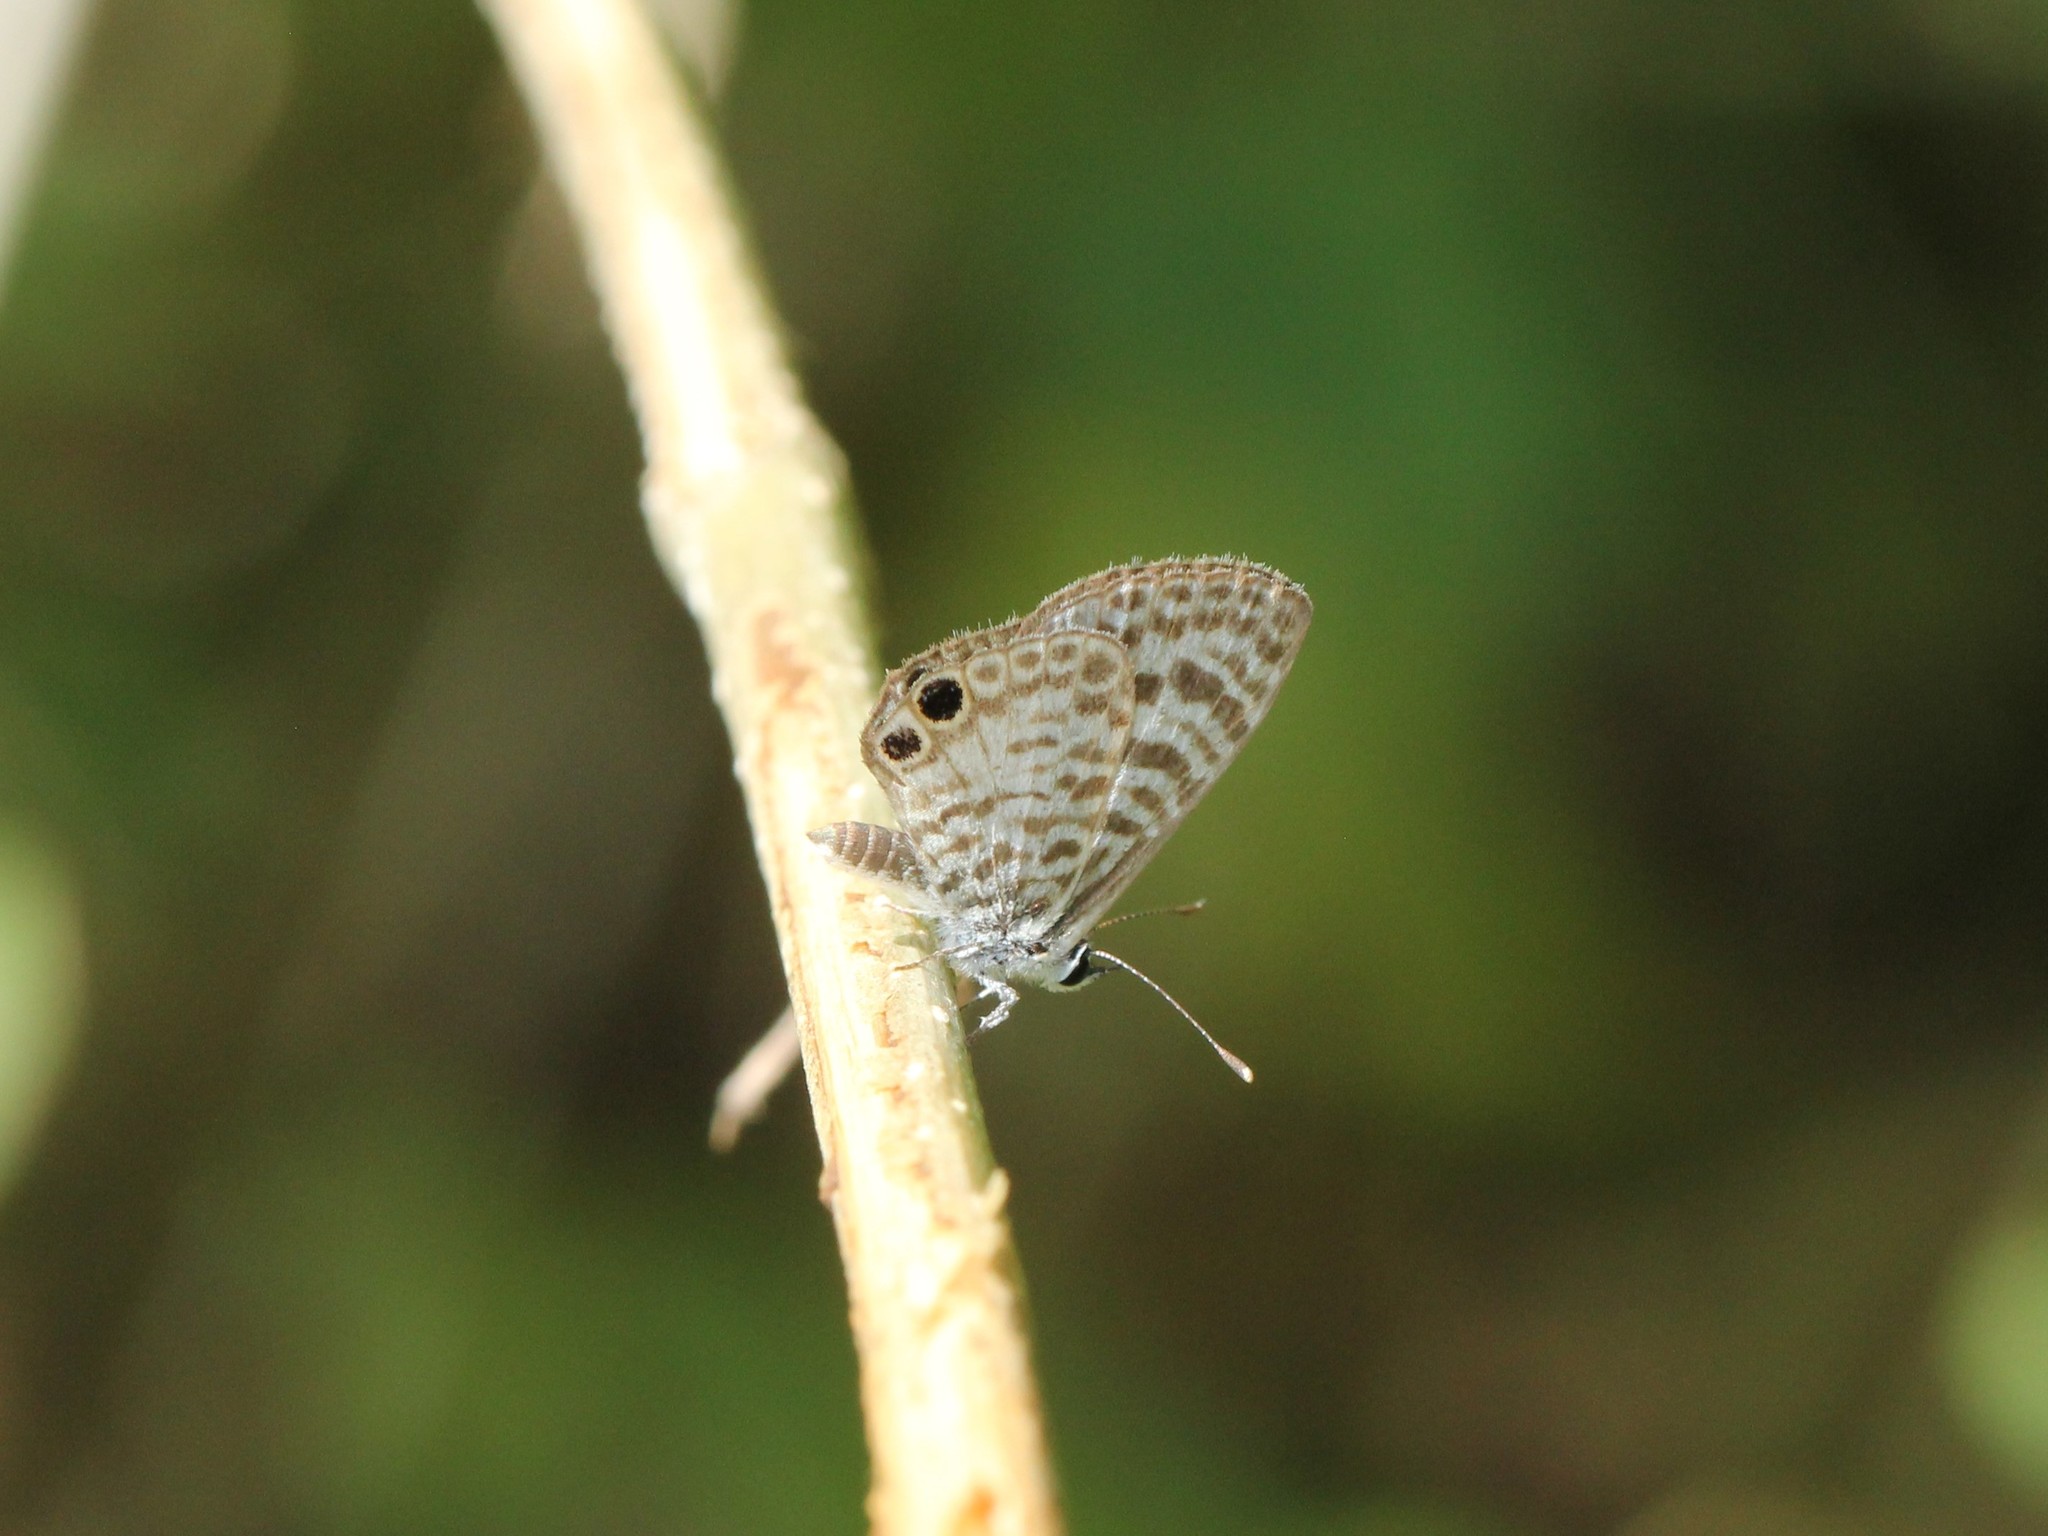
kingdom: Animalia
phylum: Arthropoda
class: Insecta
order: Lepidoptera
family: Lycaenidae
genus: Leptotes
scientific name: Leptotes cassius
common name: Cassius blue
